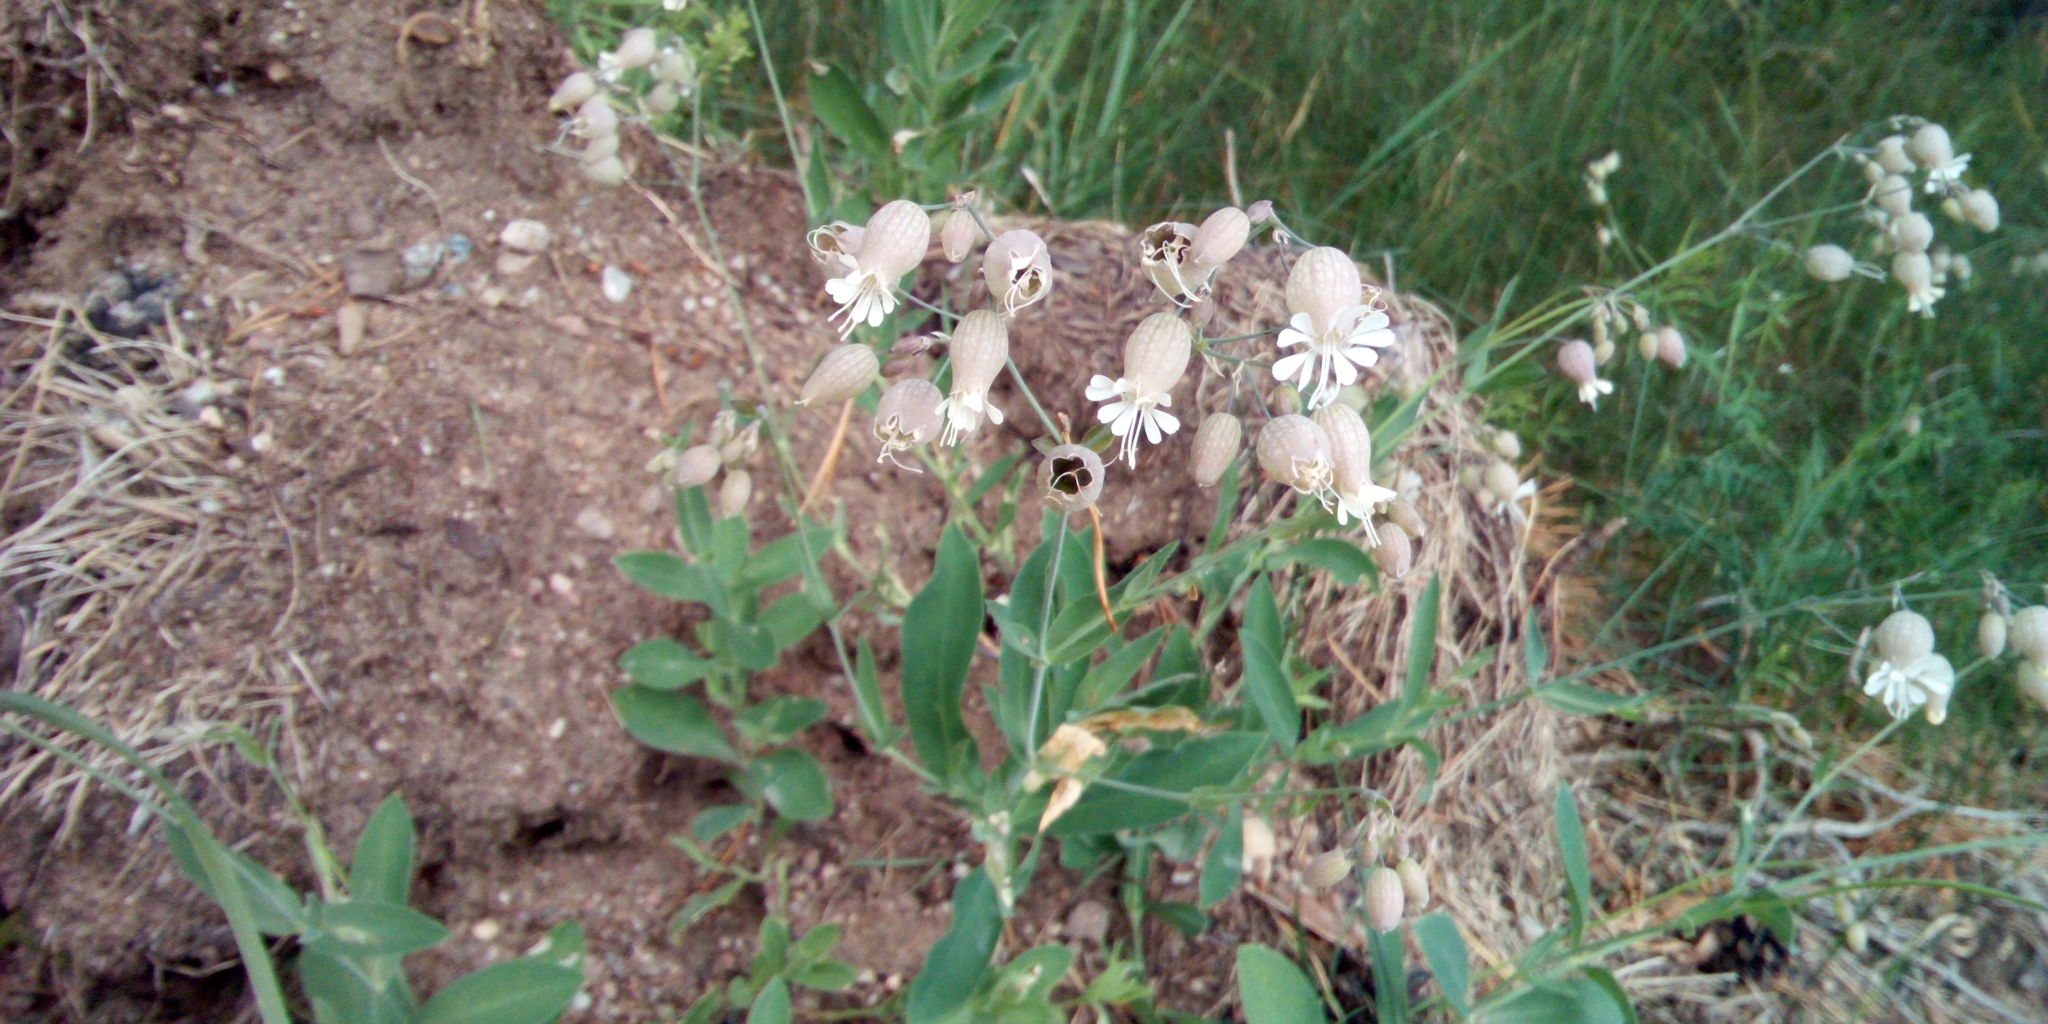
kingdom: Plantae
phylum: Tracheophyta
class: Magnoliopsida
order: Caryophyllales
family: Caryophyllaceae
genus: Silene
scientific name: Silene vulgaris
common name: Bladder campion
